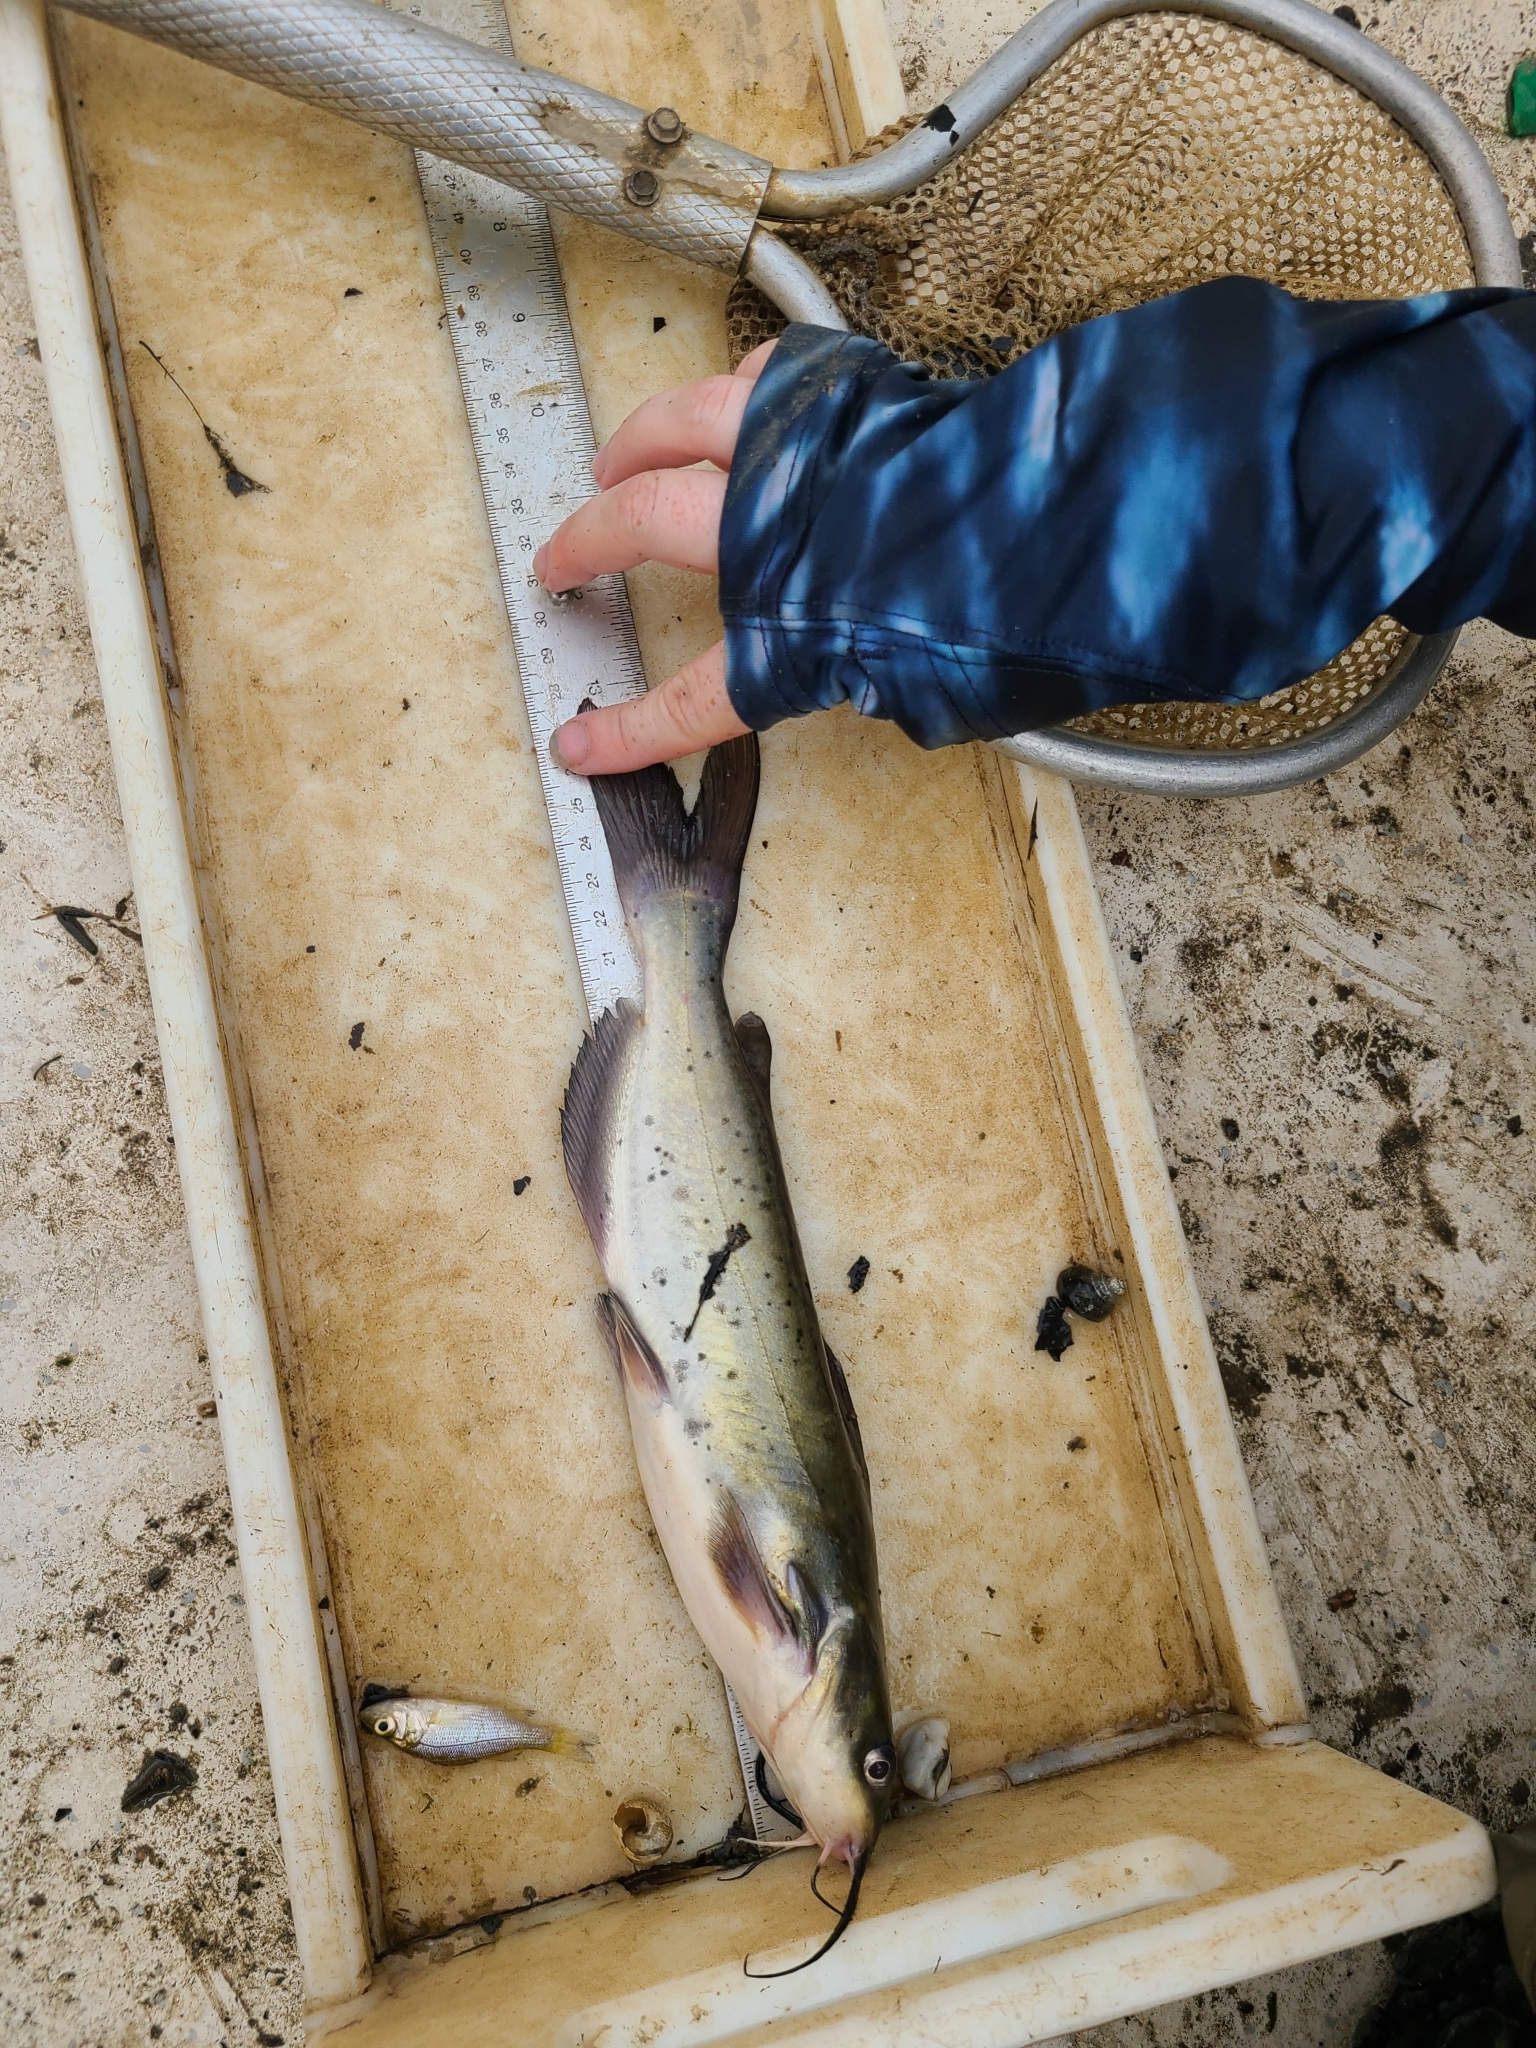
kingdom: Animalia
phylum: Chordata
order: Siluriformes
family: Ictaluridae
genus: Ictalurus
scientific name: Ictalurus punctatus
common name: Channel catfish
